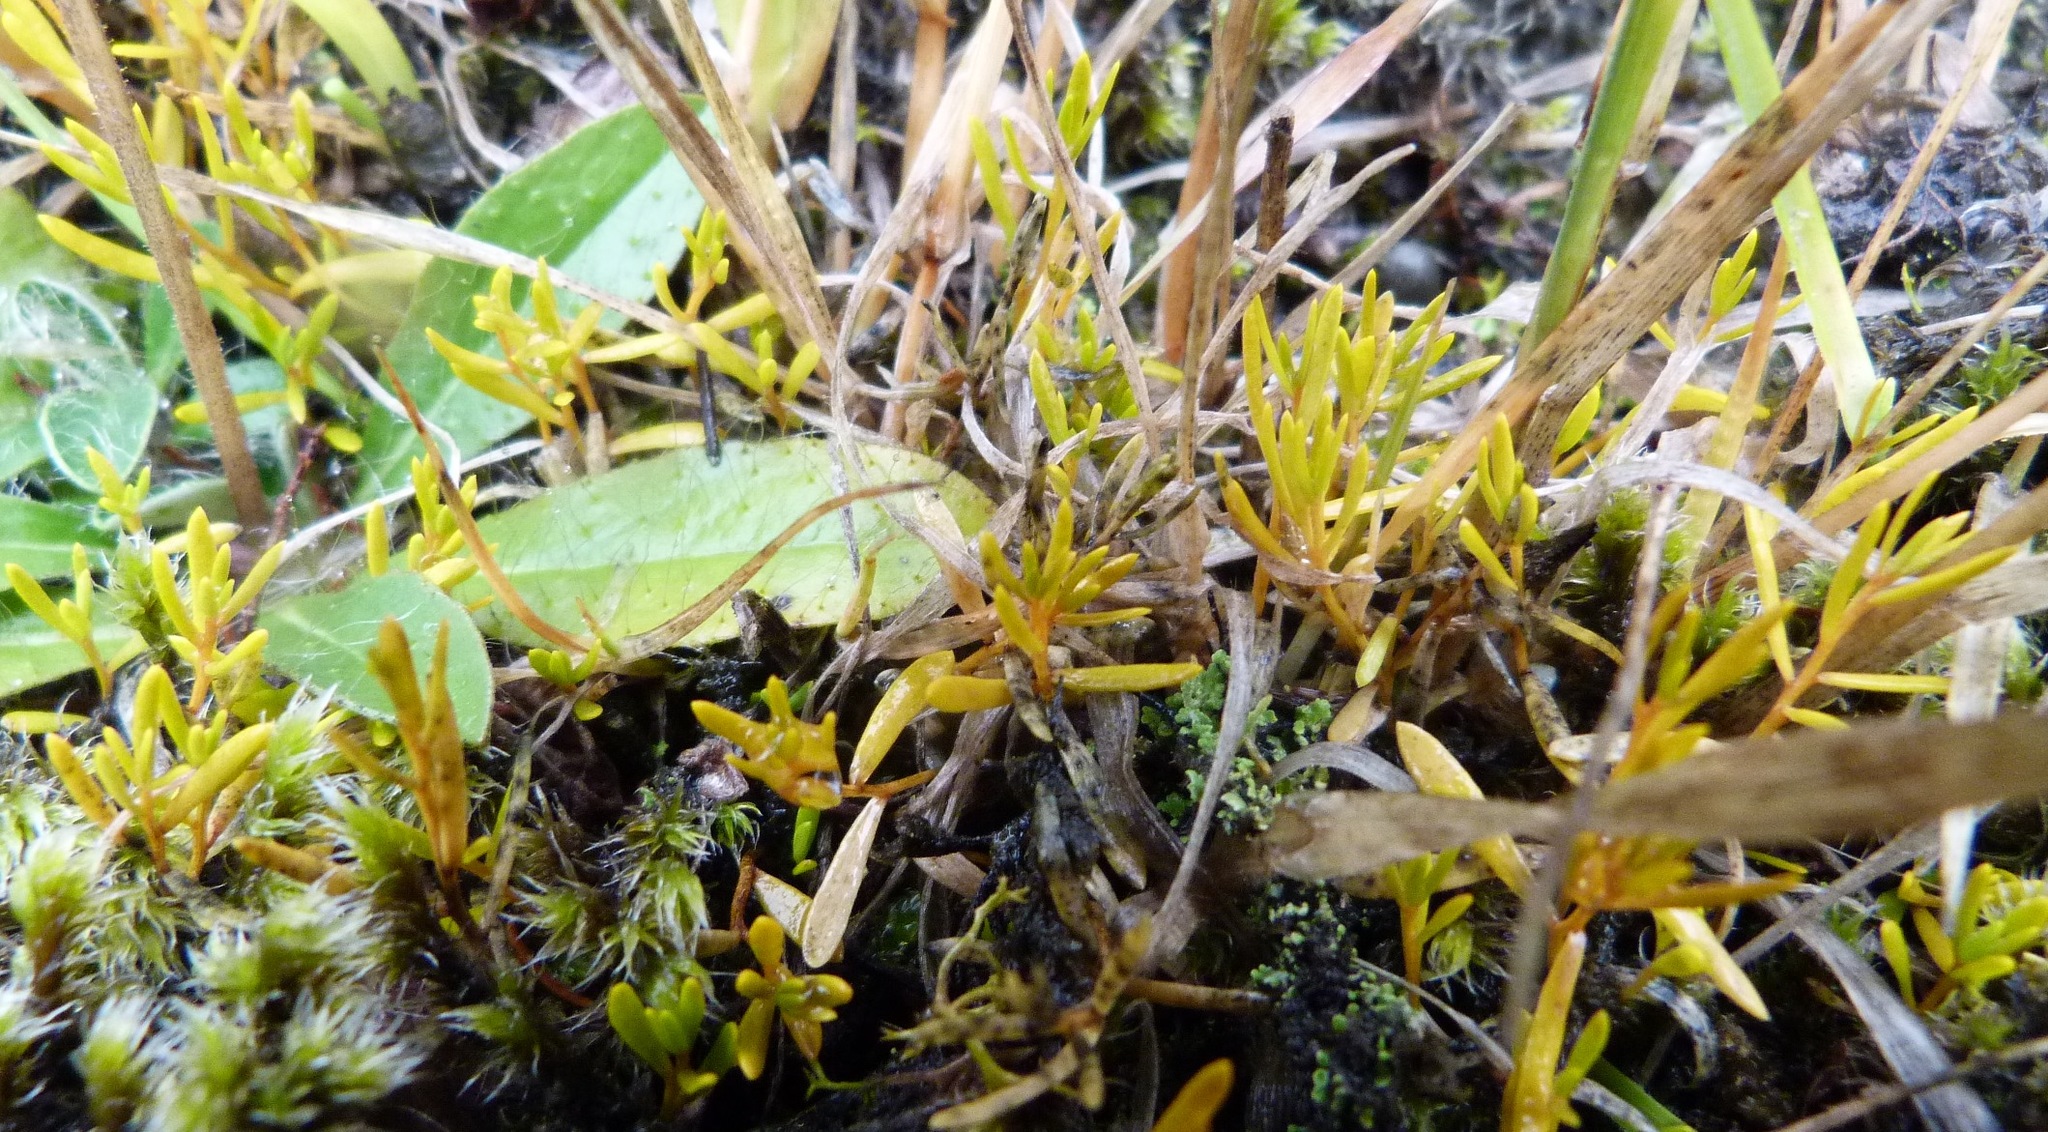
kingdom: Plantae
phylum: Tracheophyta
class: Magnoliopsida
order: Celastrales
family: Celastraceae
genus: Stackhousia
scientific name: Stackhousia minima
